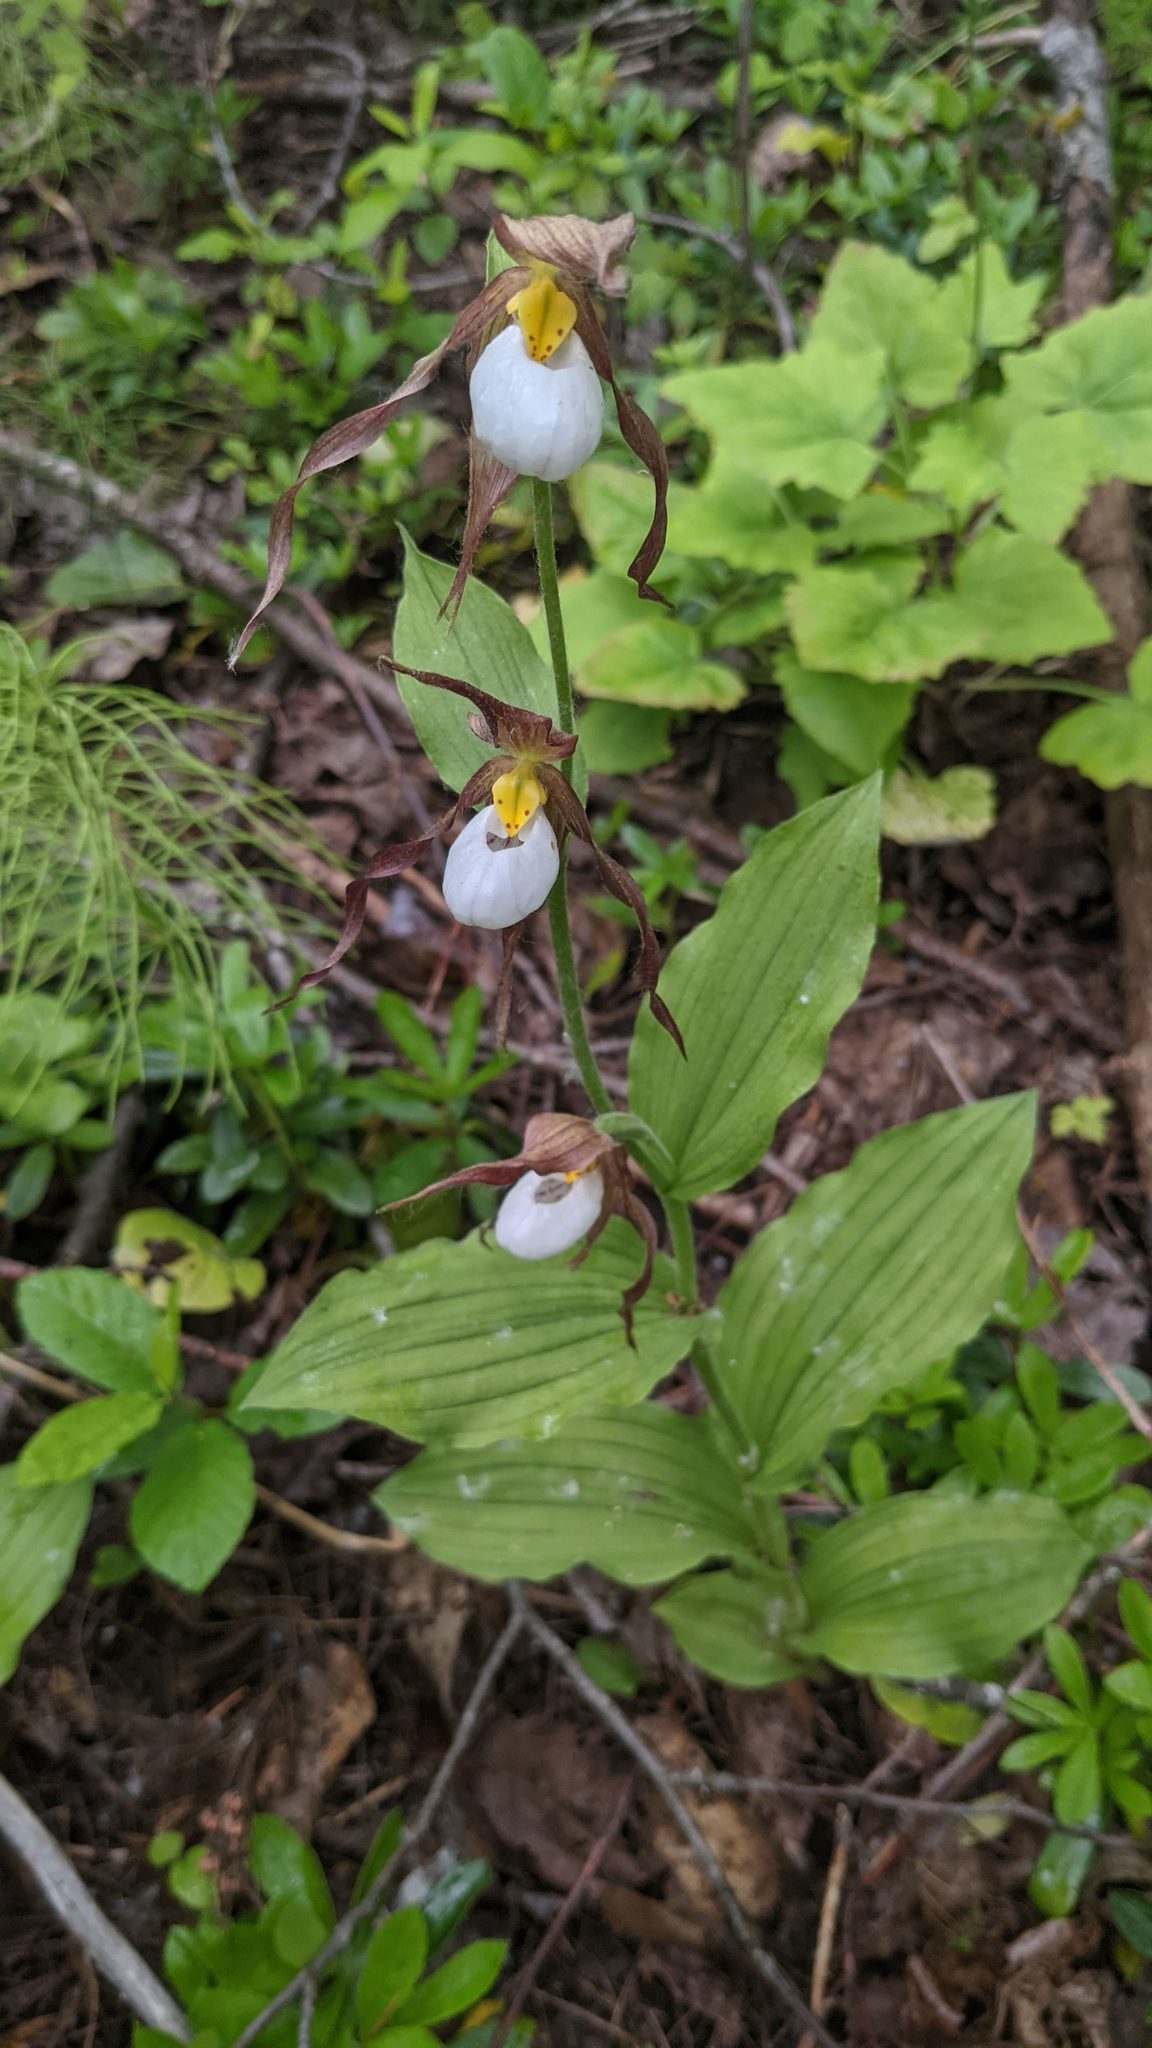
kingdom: Plantae
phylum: Tracheophyta
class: Liliopsida
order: Asparagales
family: Orchidaceae
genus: Cypripedium
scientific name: Cypripedium montanum
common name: Mountain lady's-slipper
